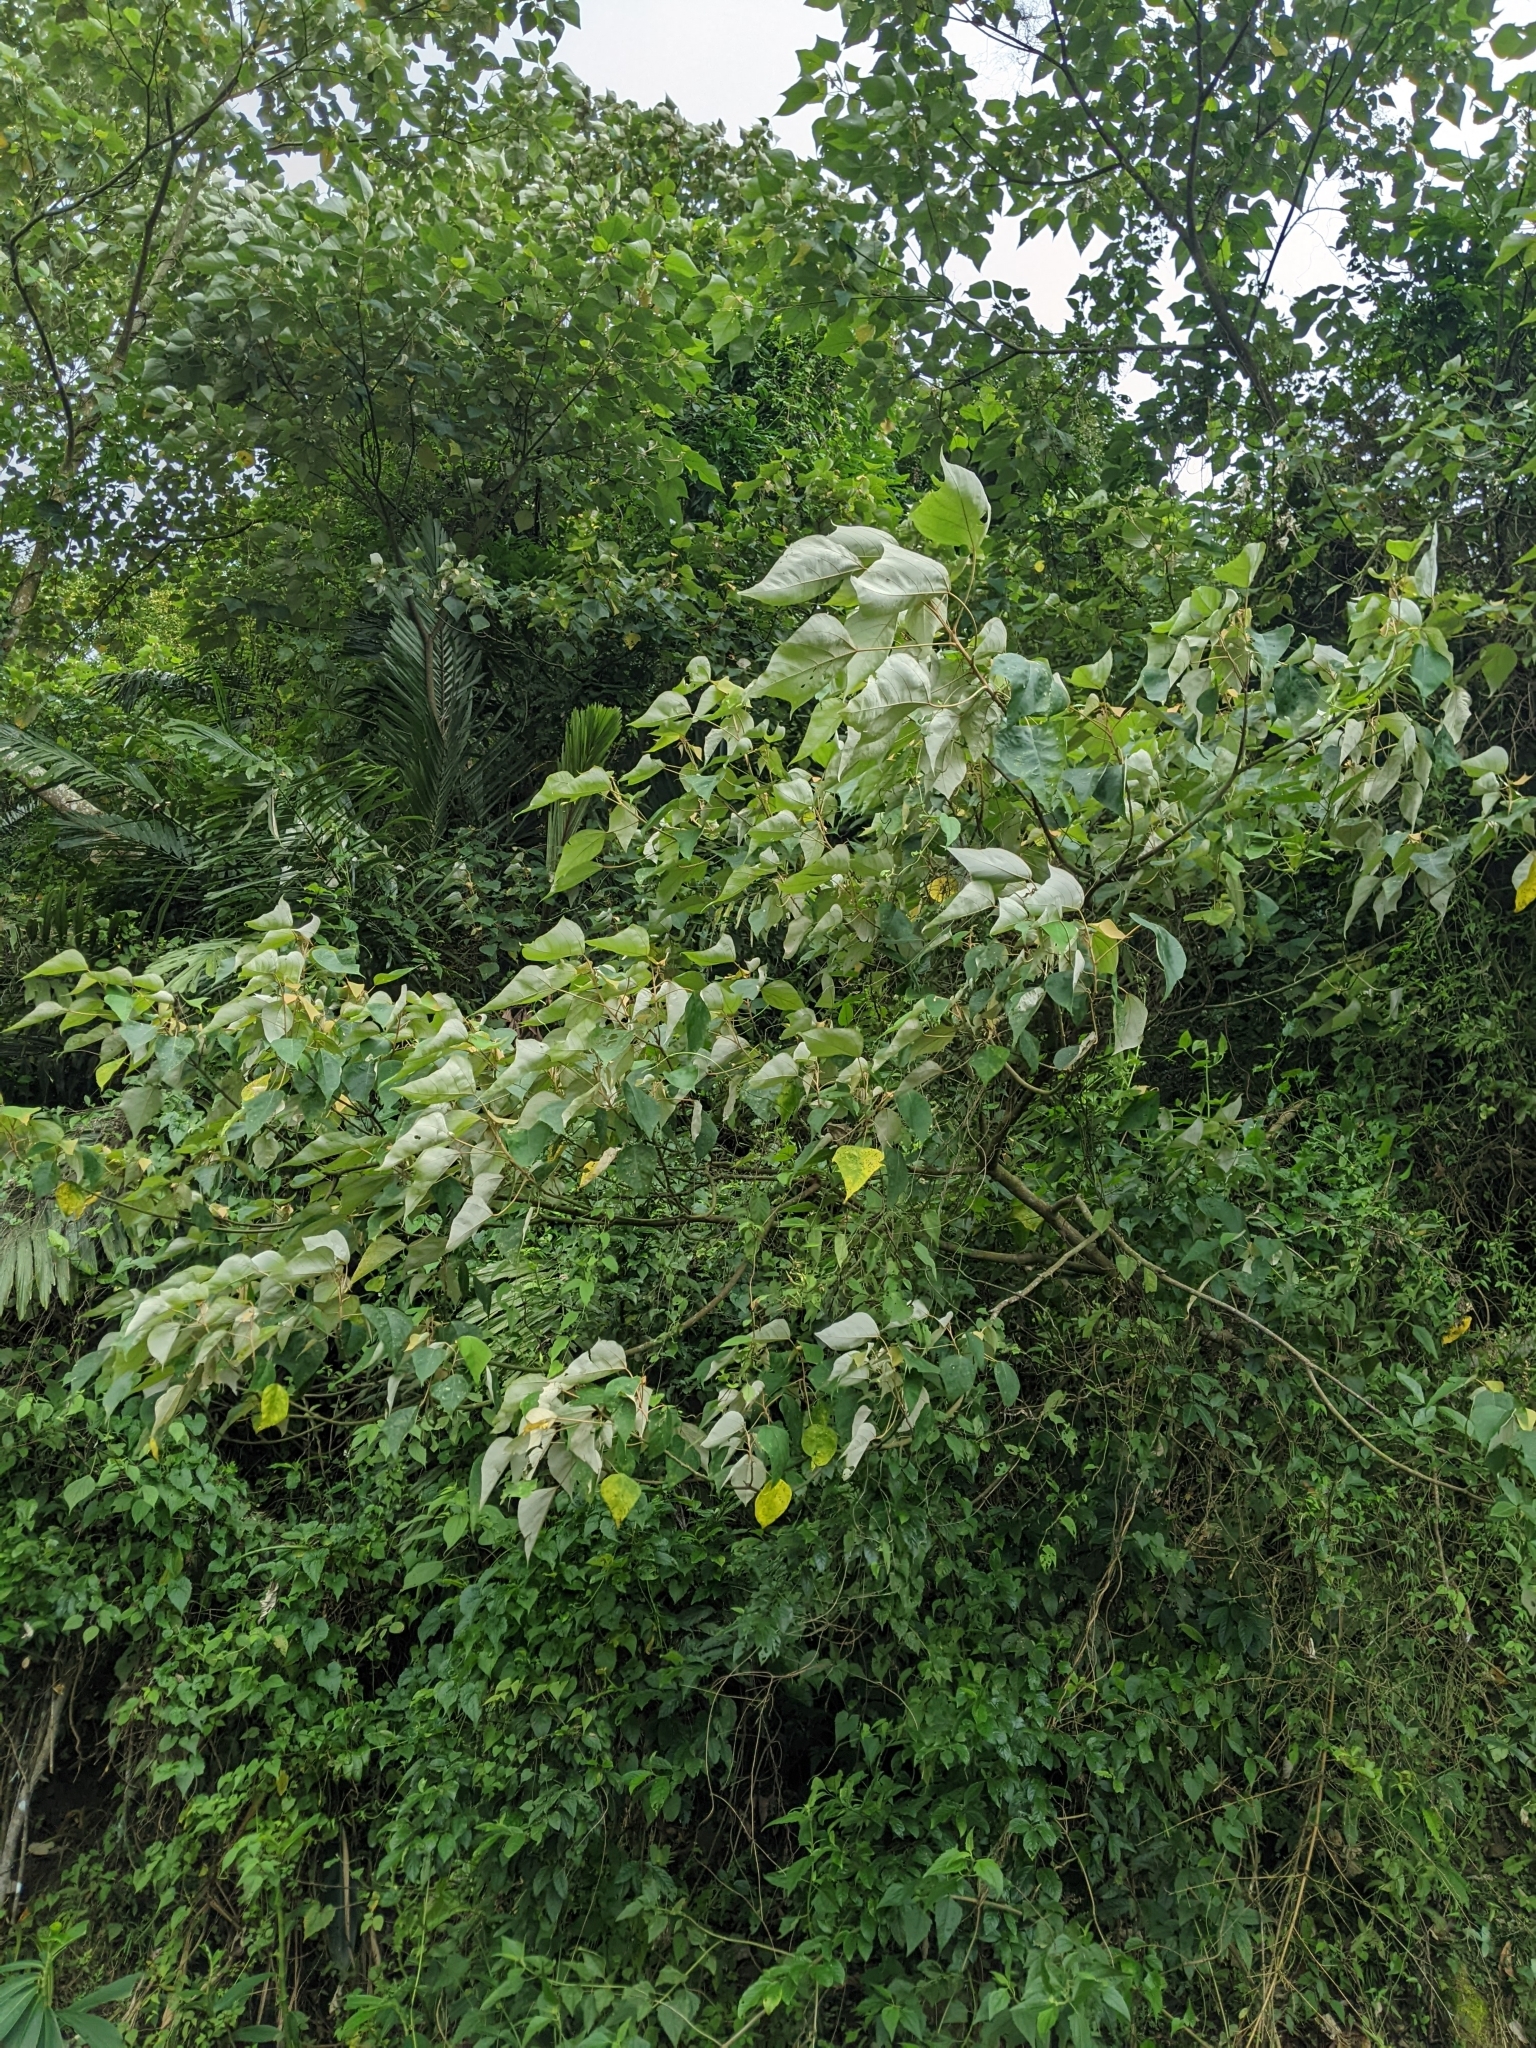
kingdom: Plantae
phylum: Tracheophyta
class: Magnoliopsida
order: Malpighiales
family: Euphorbiaceae
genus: Mallotus
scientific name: Mallotus paniculatus
